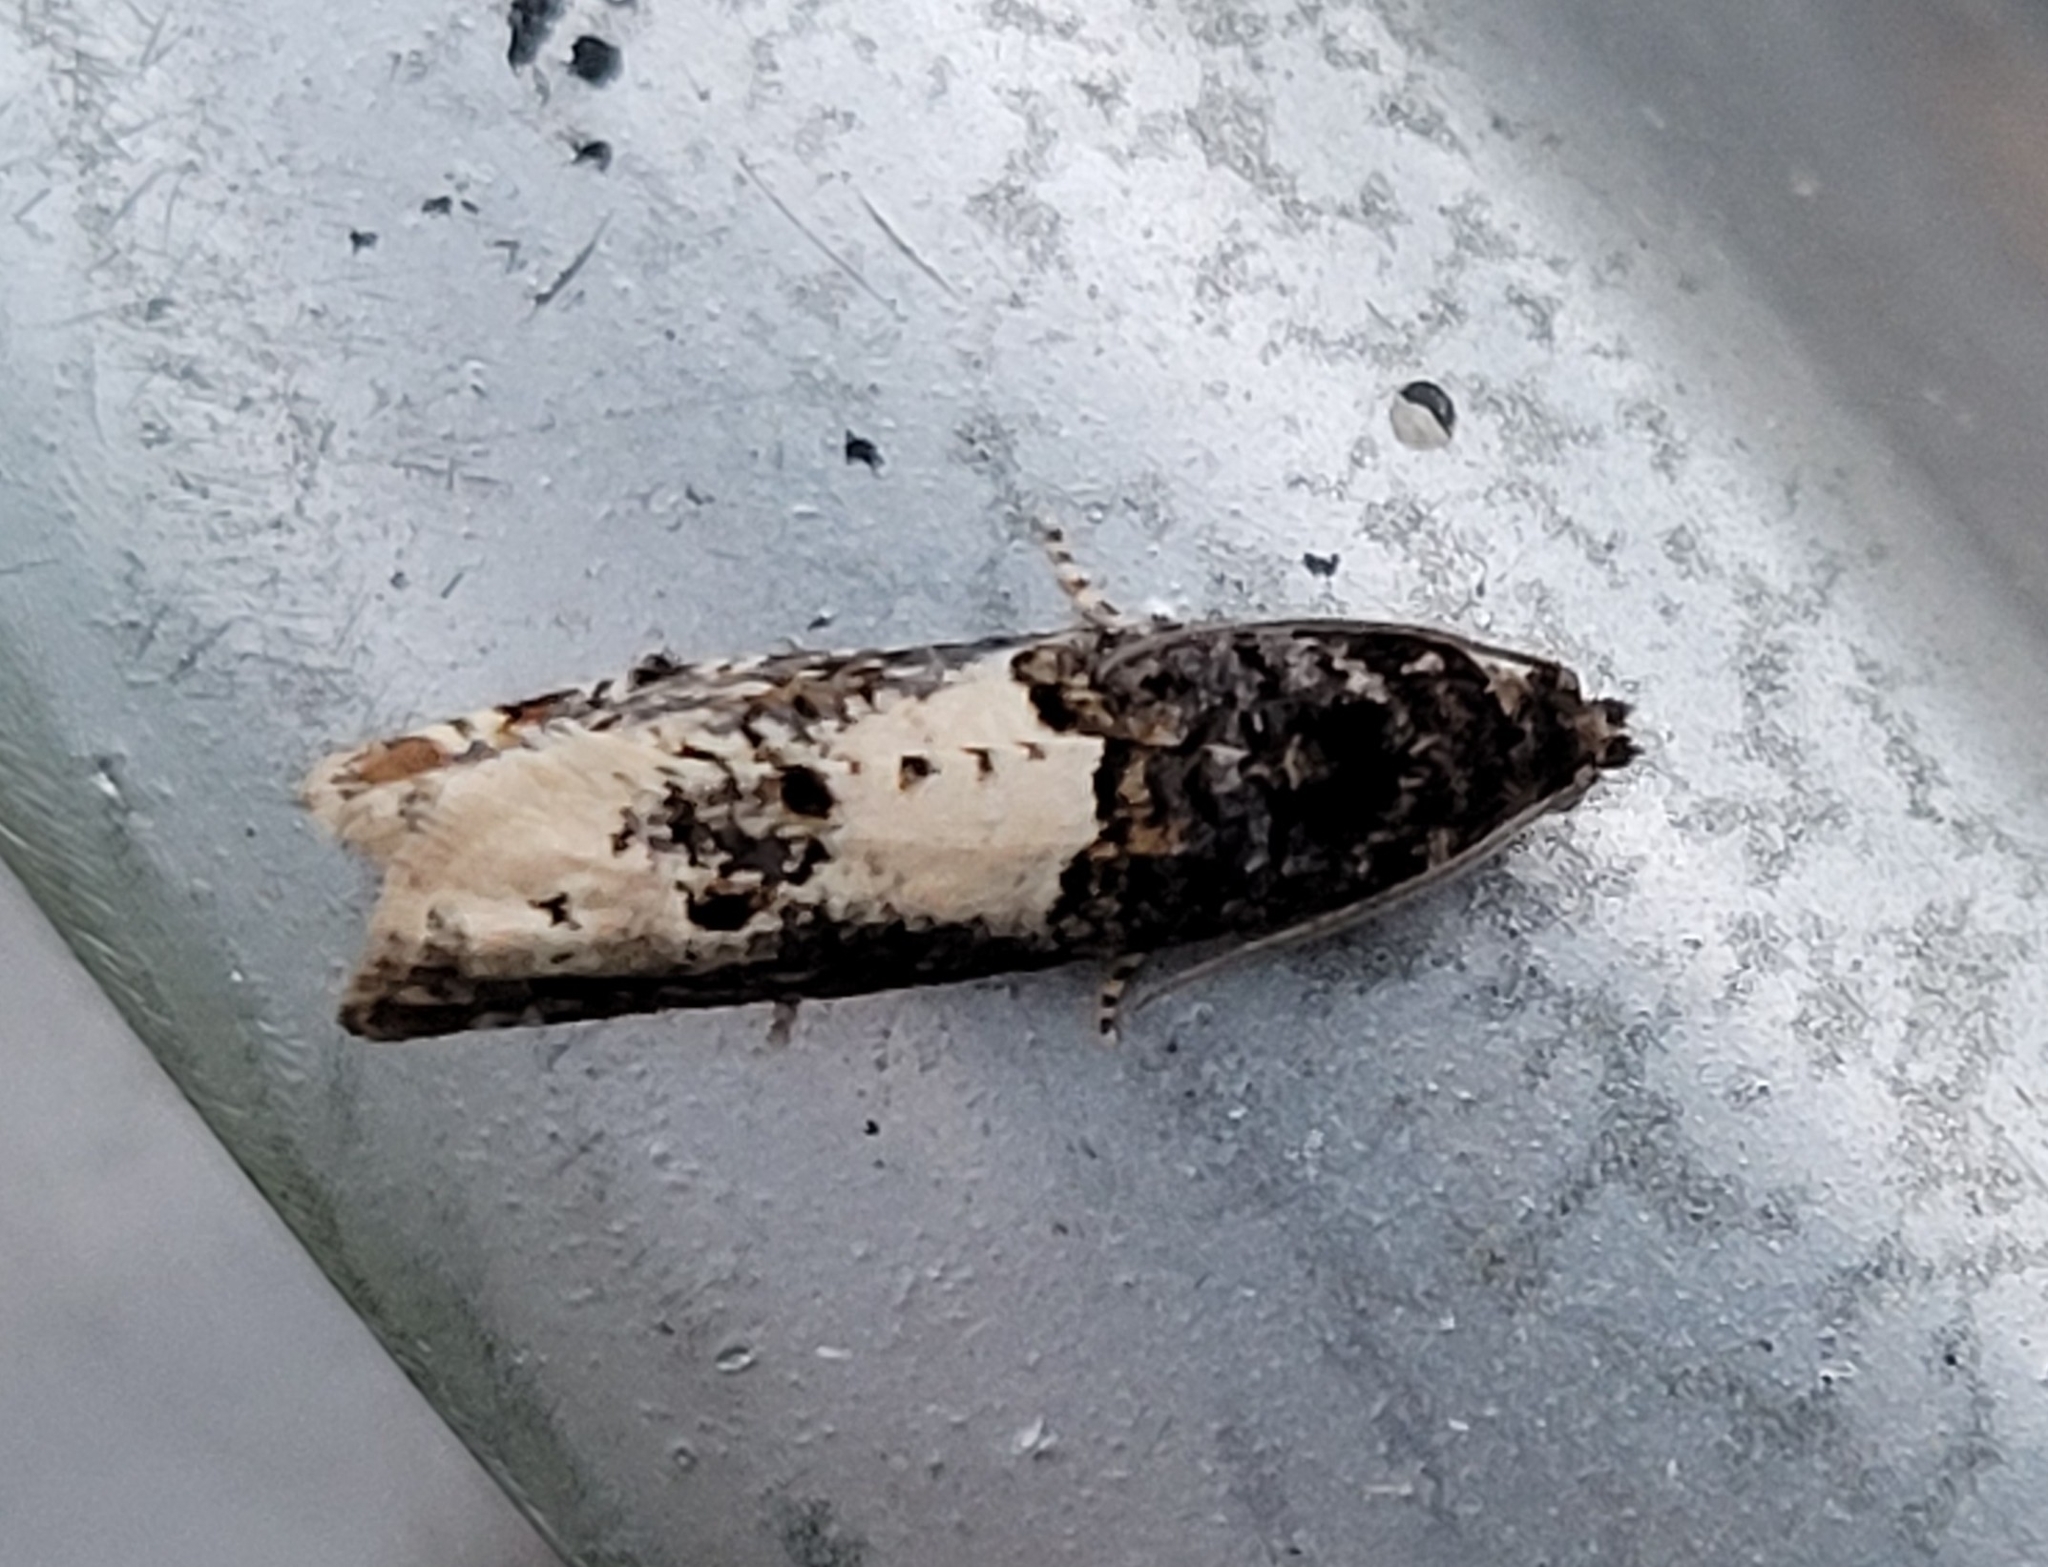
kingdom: Animalia
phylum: Arthropoda
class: Insecta
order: Lepidoptera
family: Tortricidae
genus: Epiblema
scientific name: Epiblema scutulana
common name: Thistle bell
